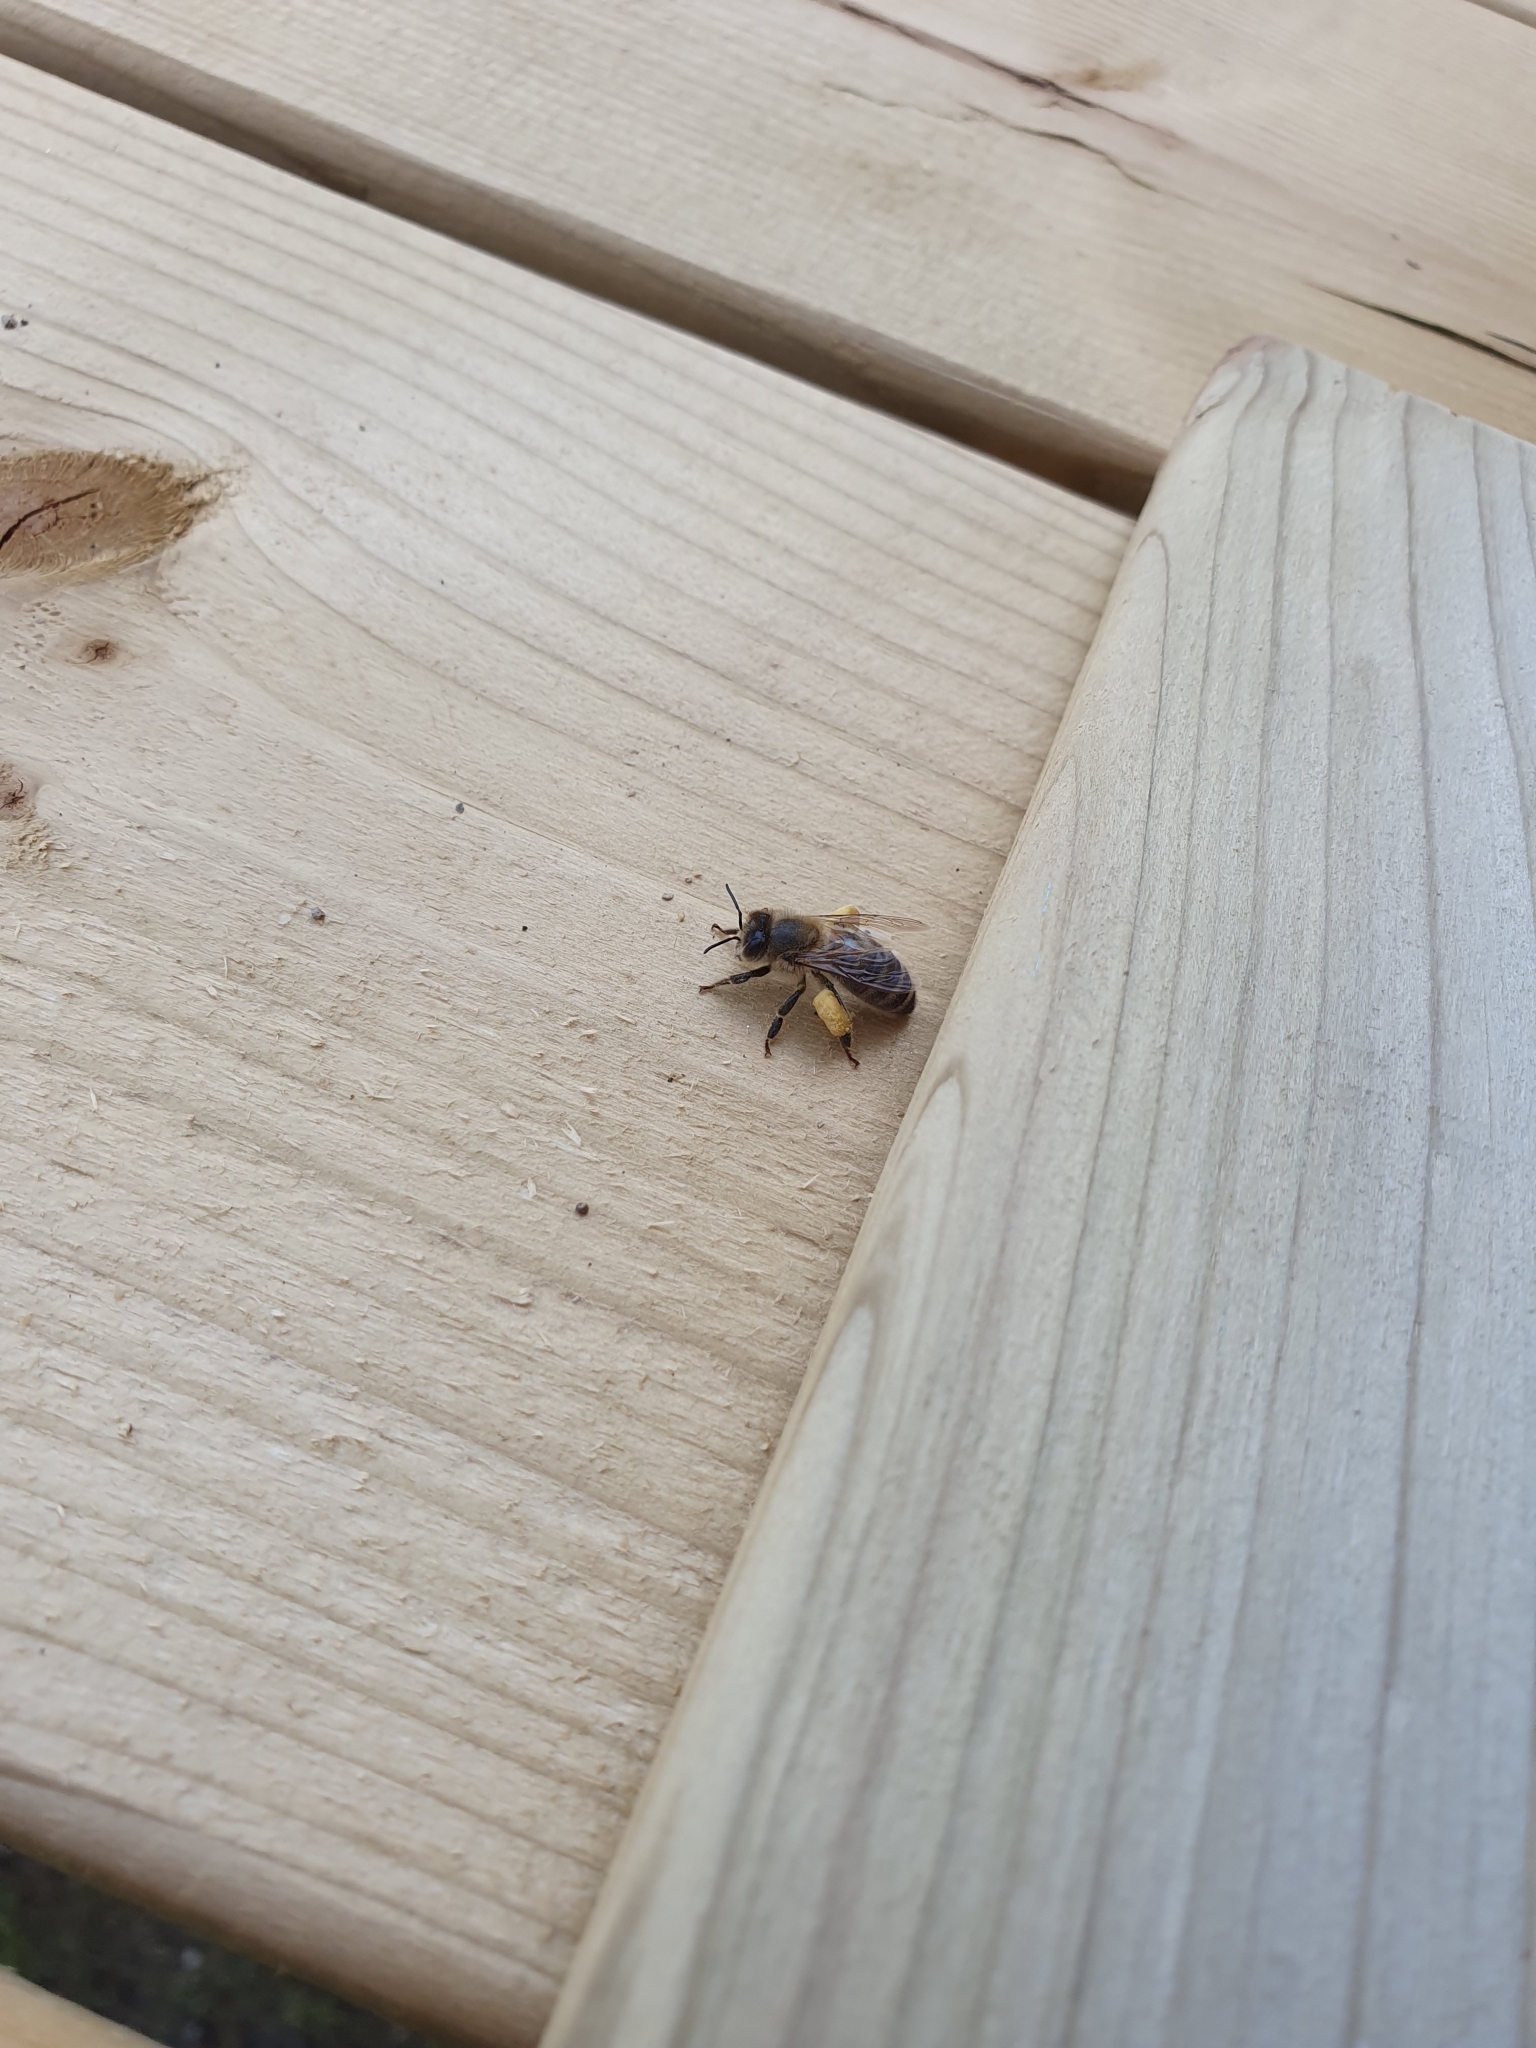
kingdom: Animalia
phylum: Arthropoda
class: Insecta
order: Hymenoptera
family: Apidae
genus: Apis
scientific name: Apis mellifera
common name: Honey bee
